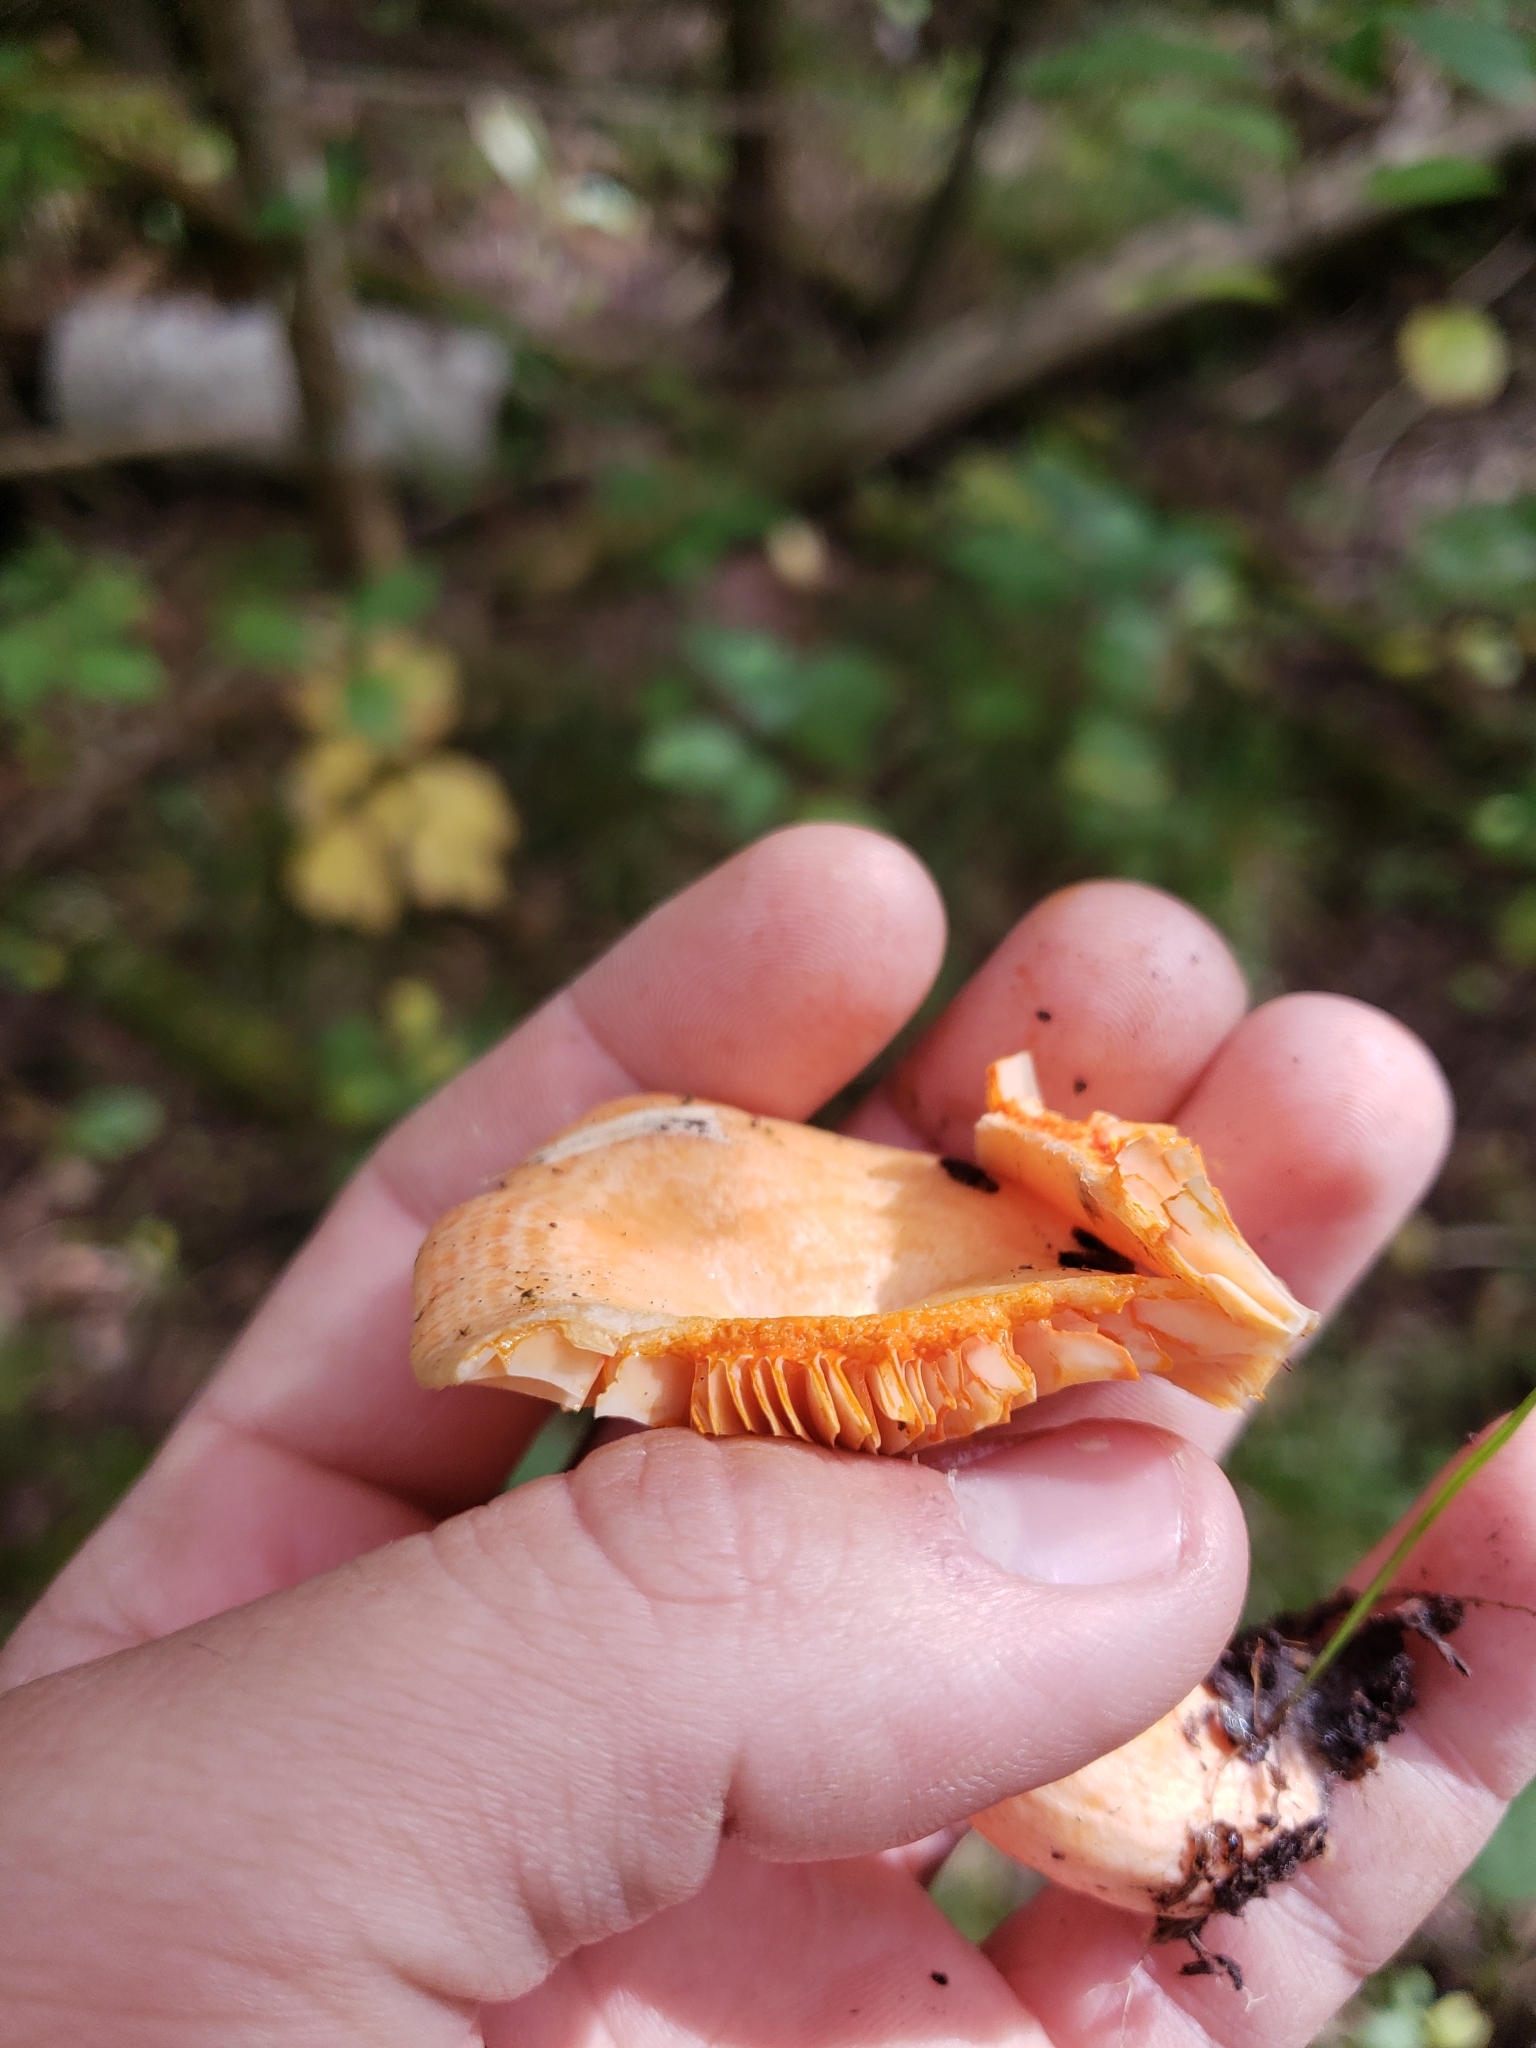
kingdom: Fungi
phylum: Basidiomycota
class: Agaricomycetes
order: Russulales
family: Russulaceae
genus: Lactarius
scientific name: Lactarius salmonicolor
